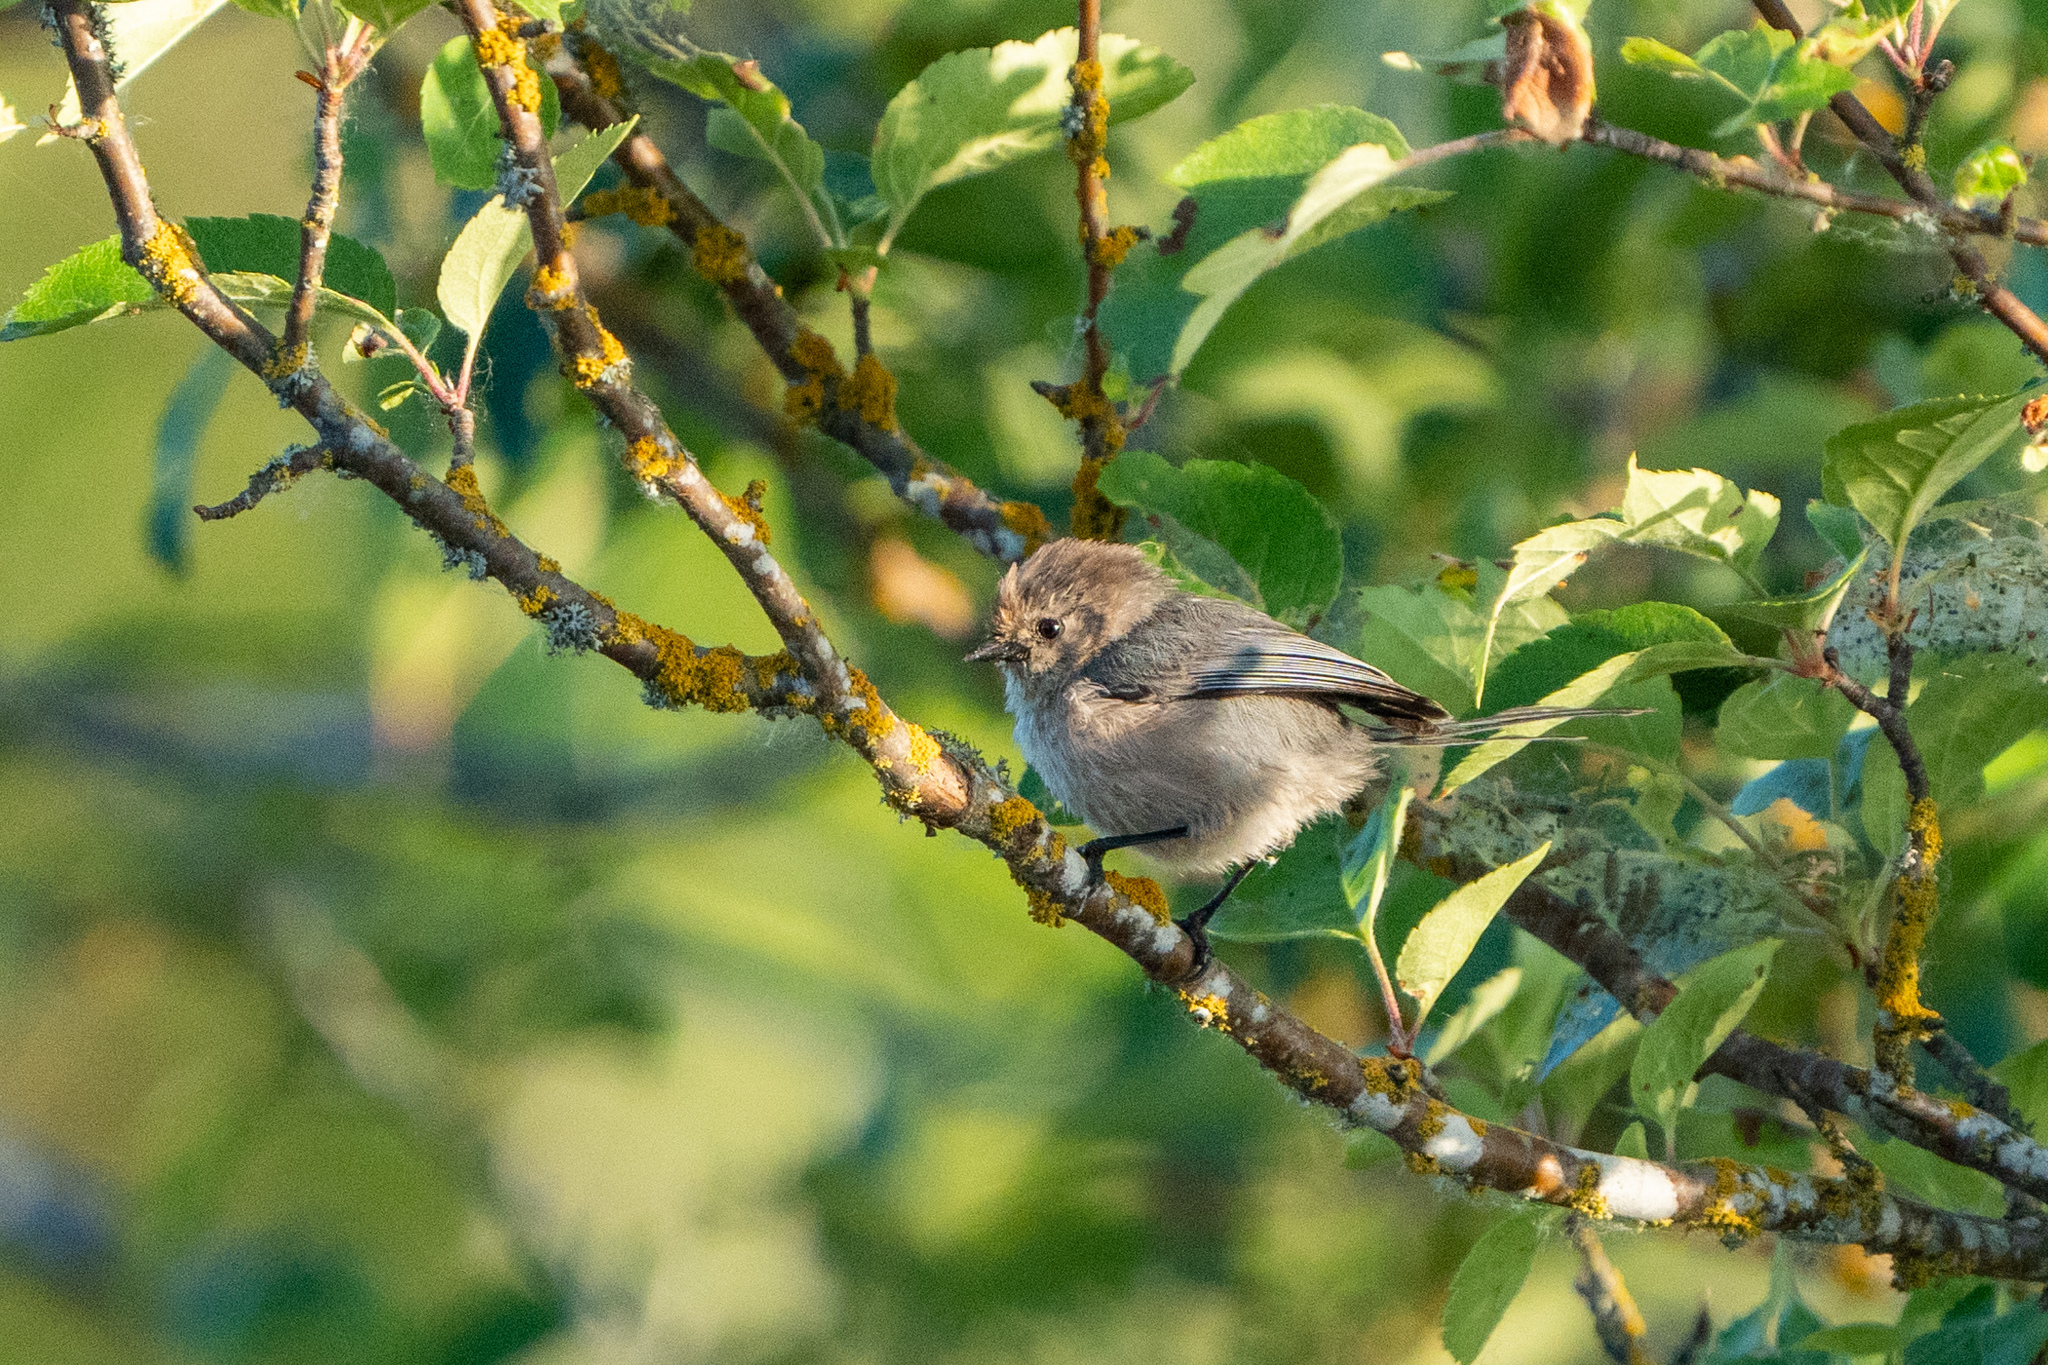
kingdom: Animalia
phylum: Chordata
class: Aves
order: Passeriformes
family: Aegithalidae
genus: Psaltriparus
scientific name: Psaltriparus minimus
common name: American bushtit
